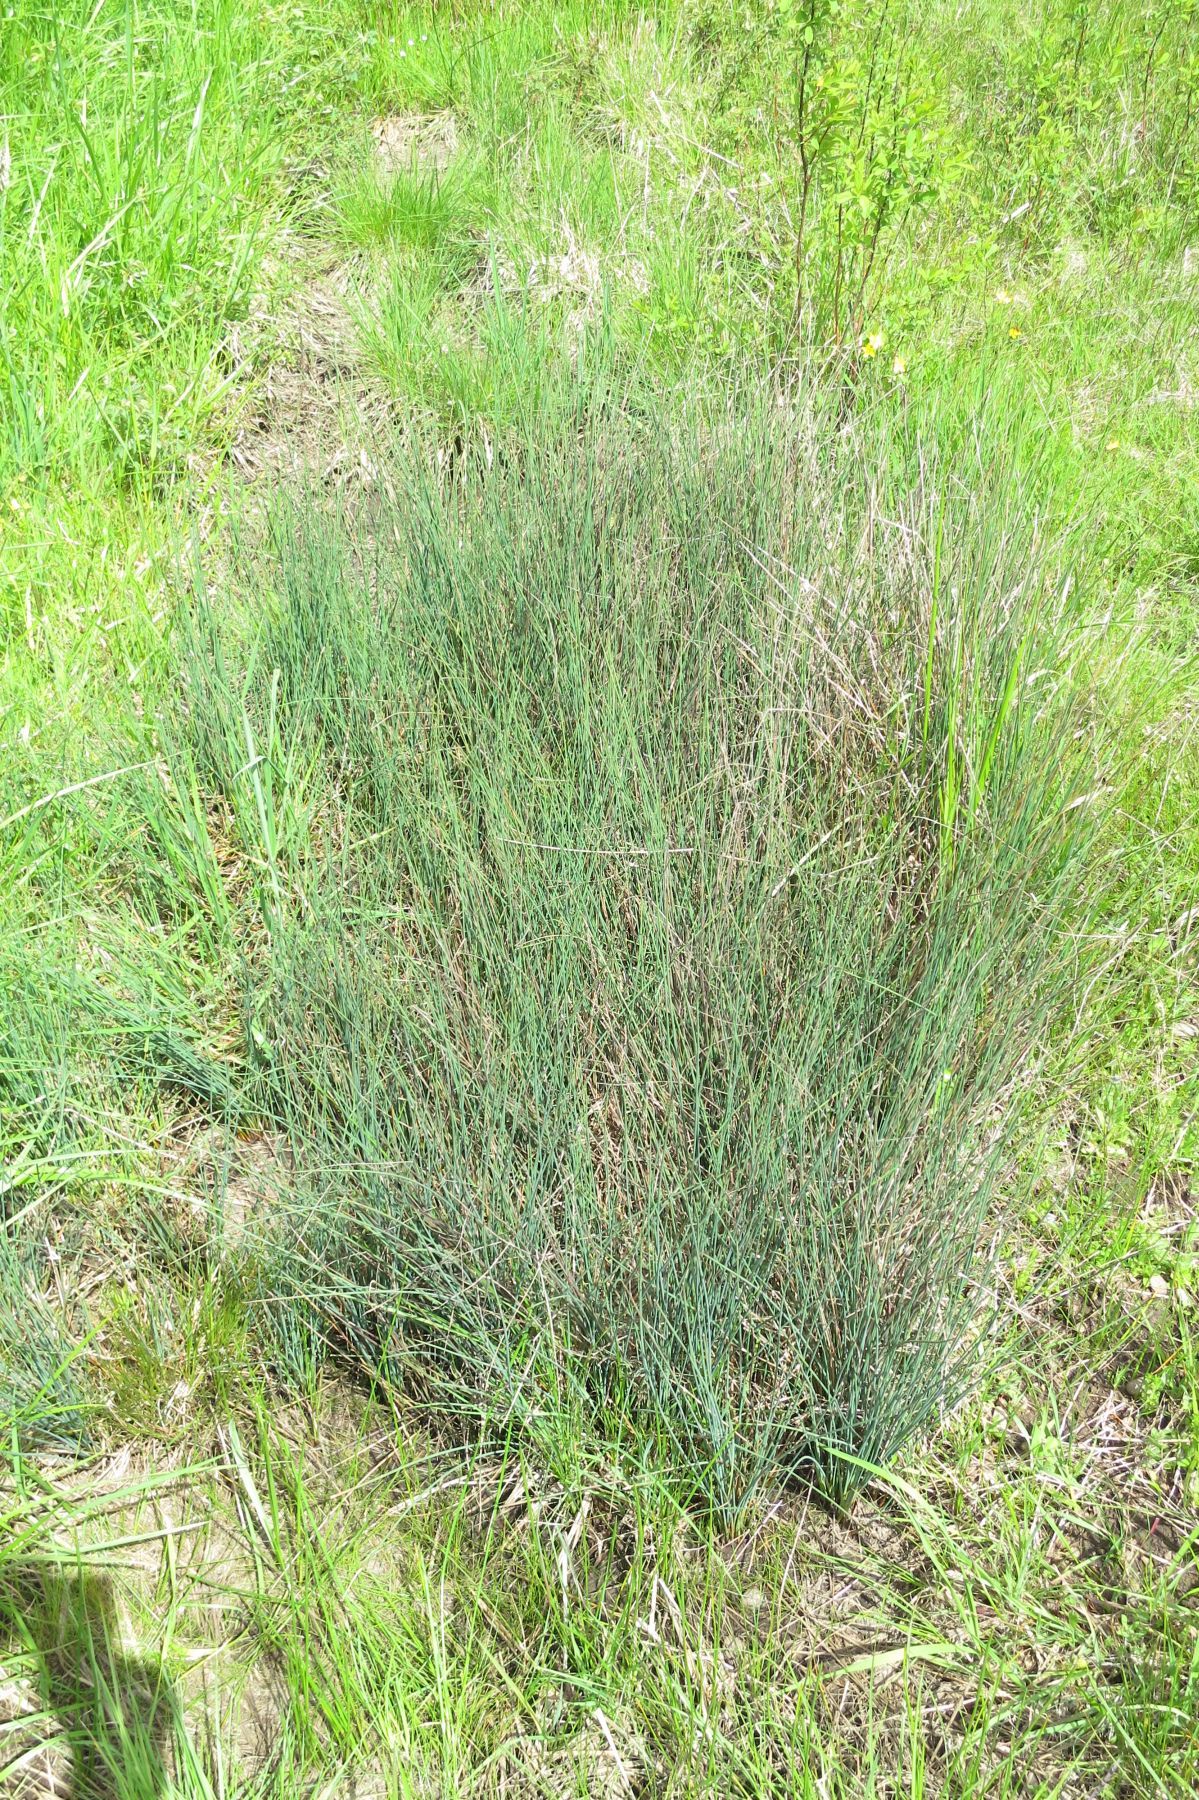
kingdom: Plantae
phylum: Tracheophyta
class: Liliopsida
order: Poales
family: Juncaceae
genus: Juncus
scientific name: Juncus patens
